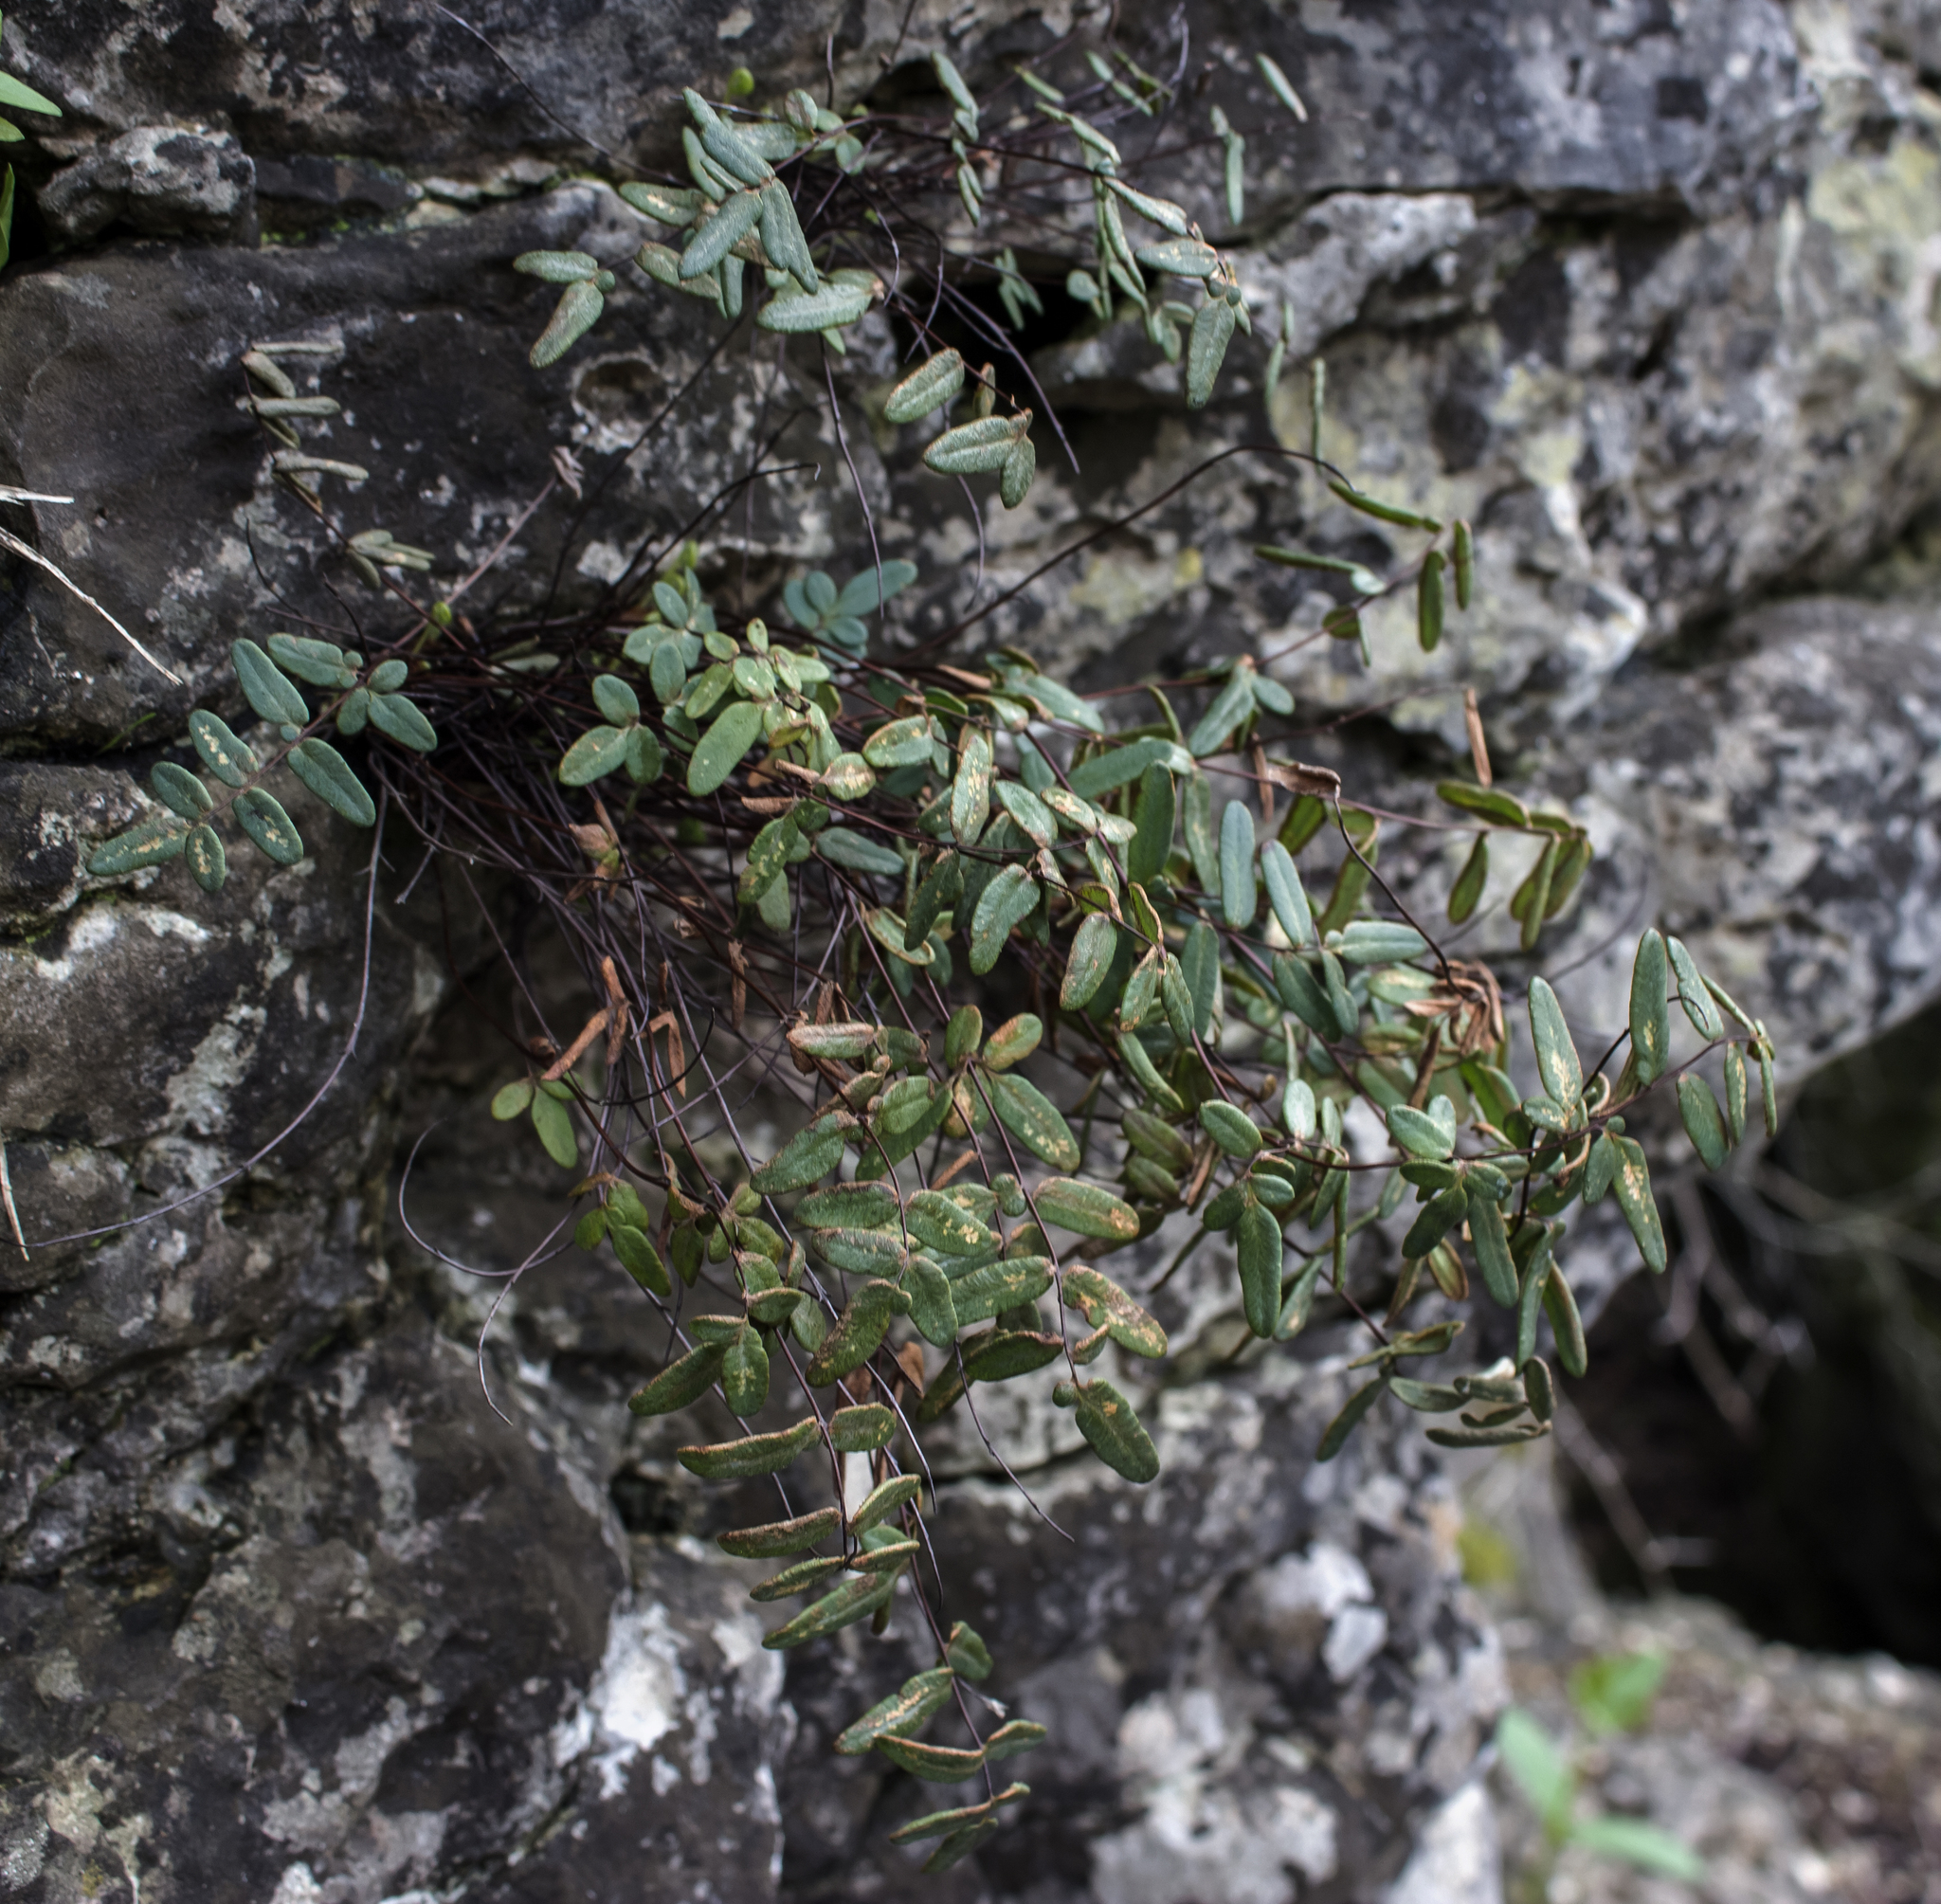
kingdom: Plantae
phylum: Tracheophyta
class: Polypodiopsida
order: Polypodiales
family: Pteridaceae
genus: Pellaea
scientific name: Pellaea glabella
